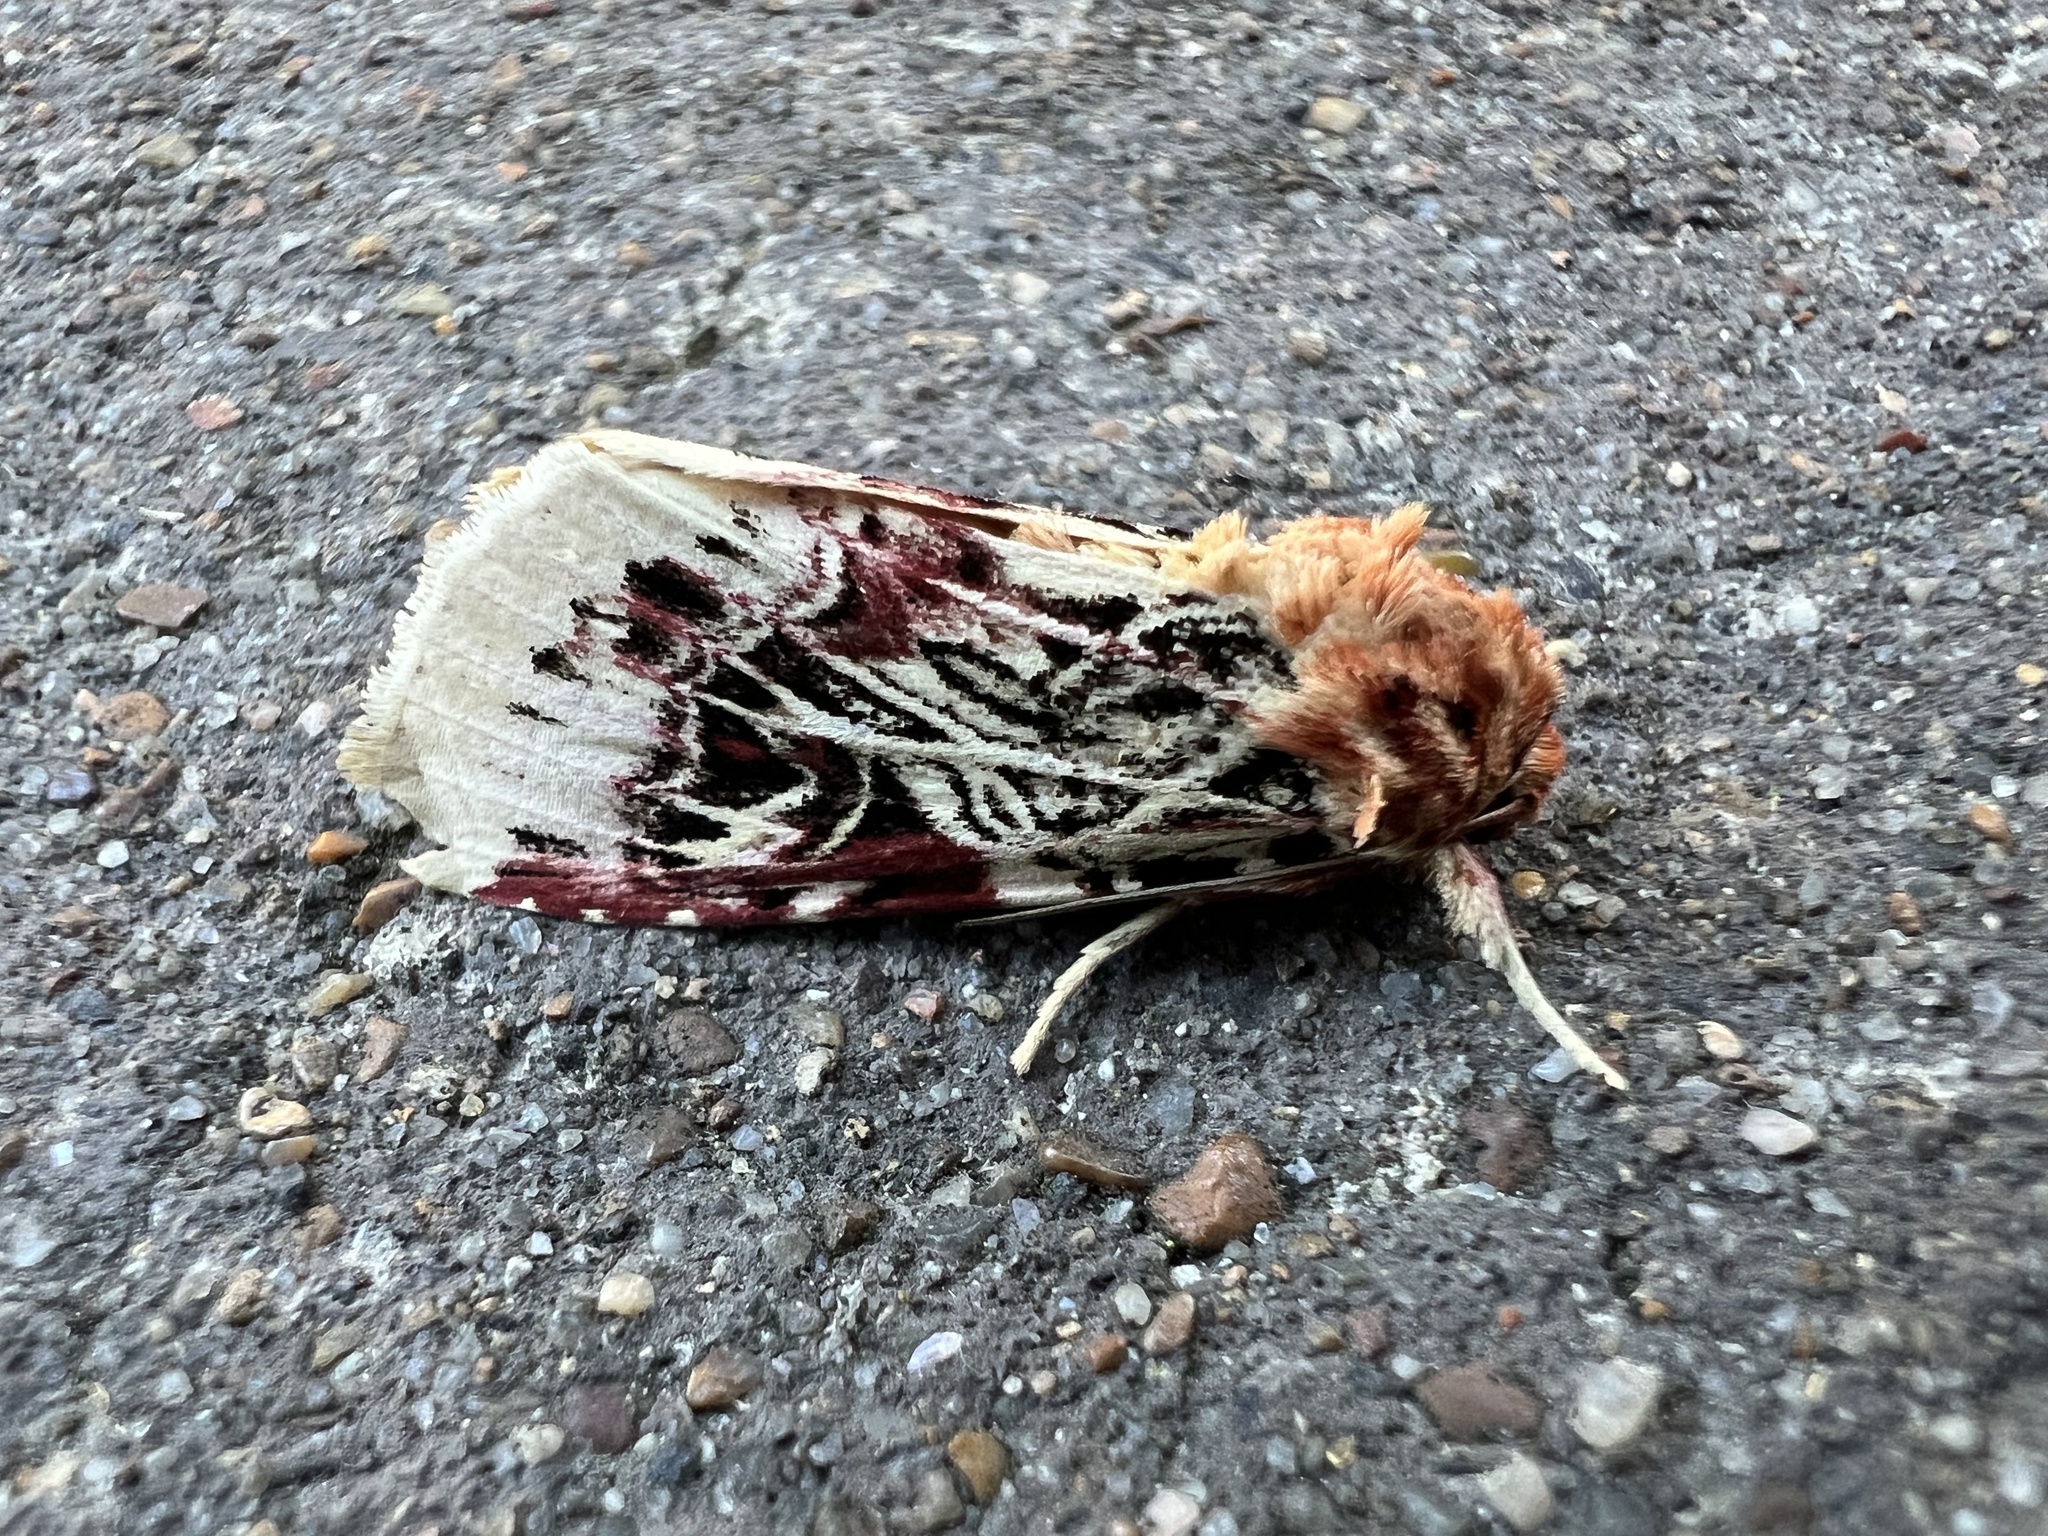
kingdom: Animalia
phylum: Arthropoda
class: Insecta
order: Lepidoptera
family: Noctuidae
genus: Spodoptera
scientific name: Spodoptera picta
